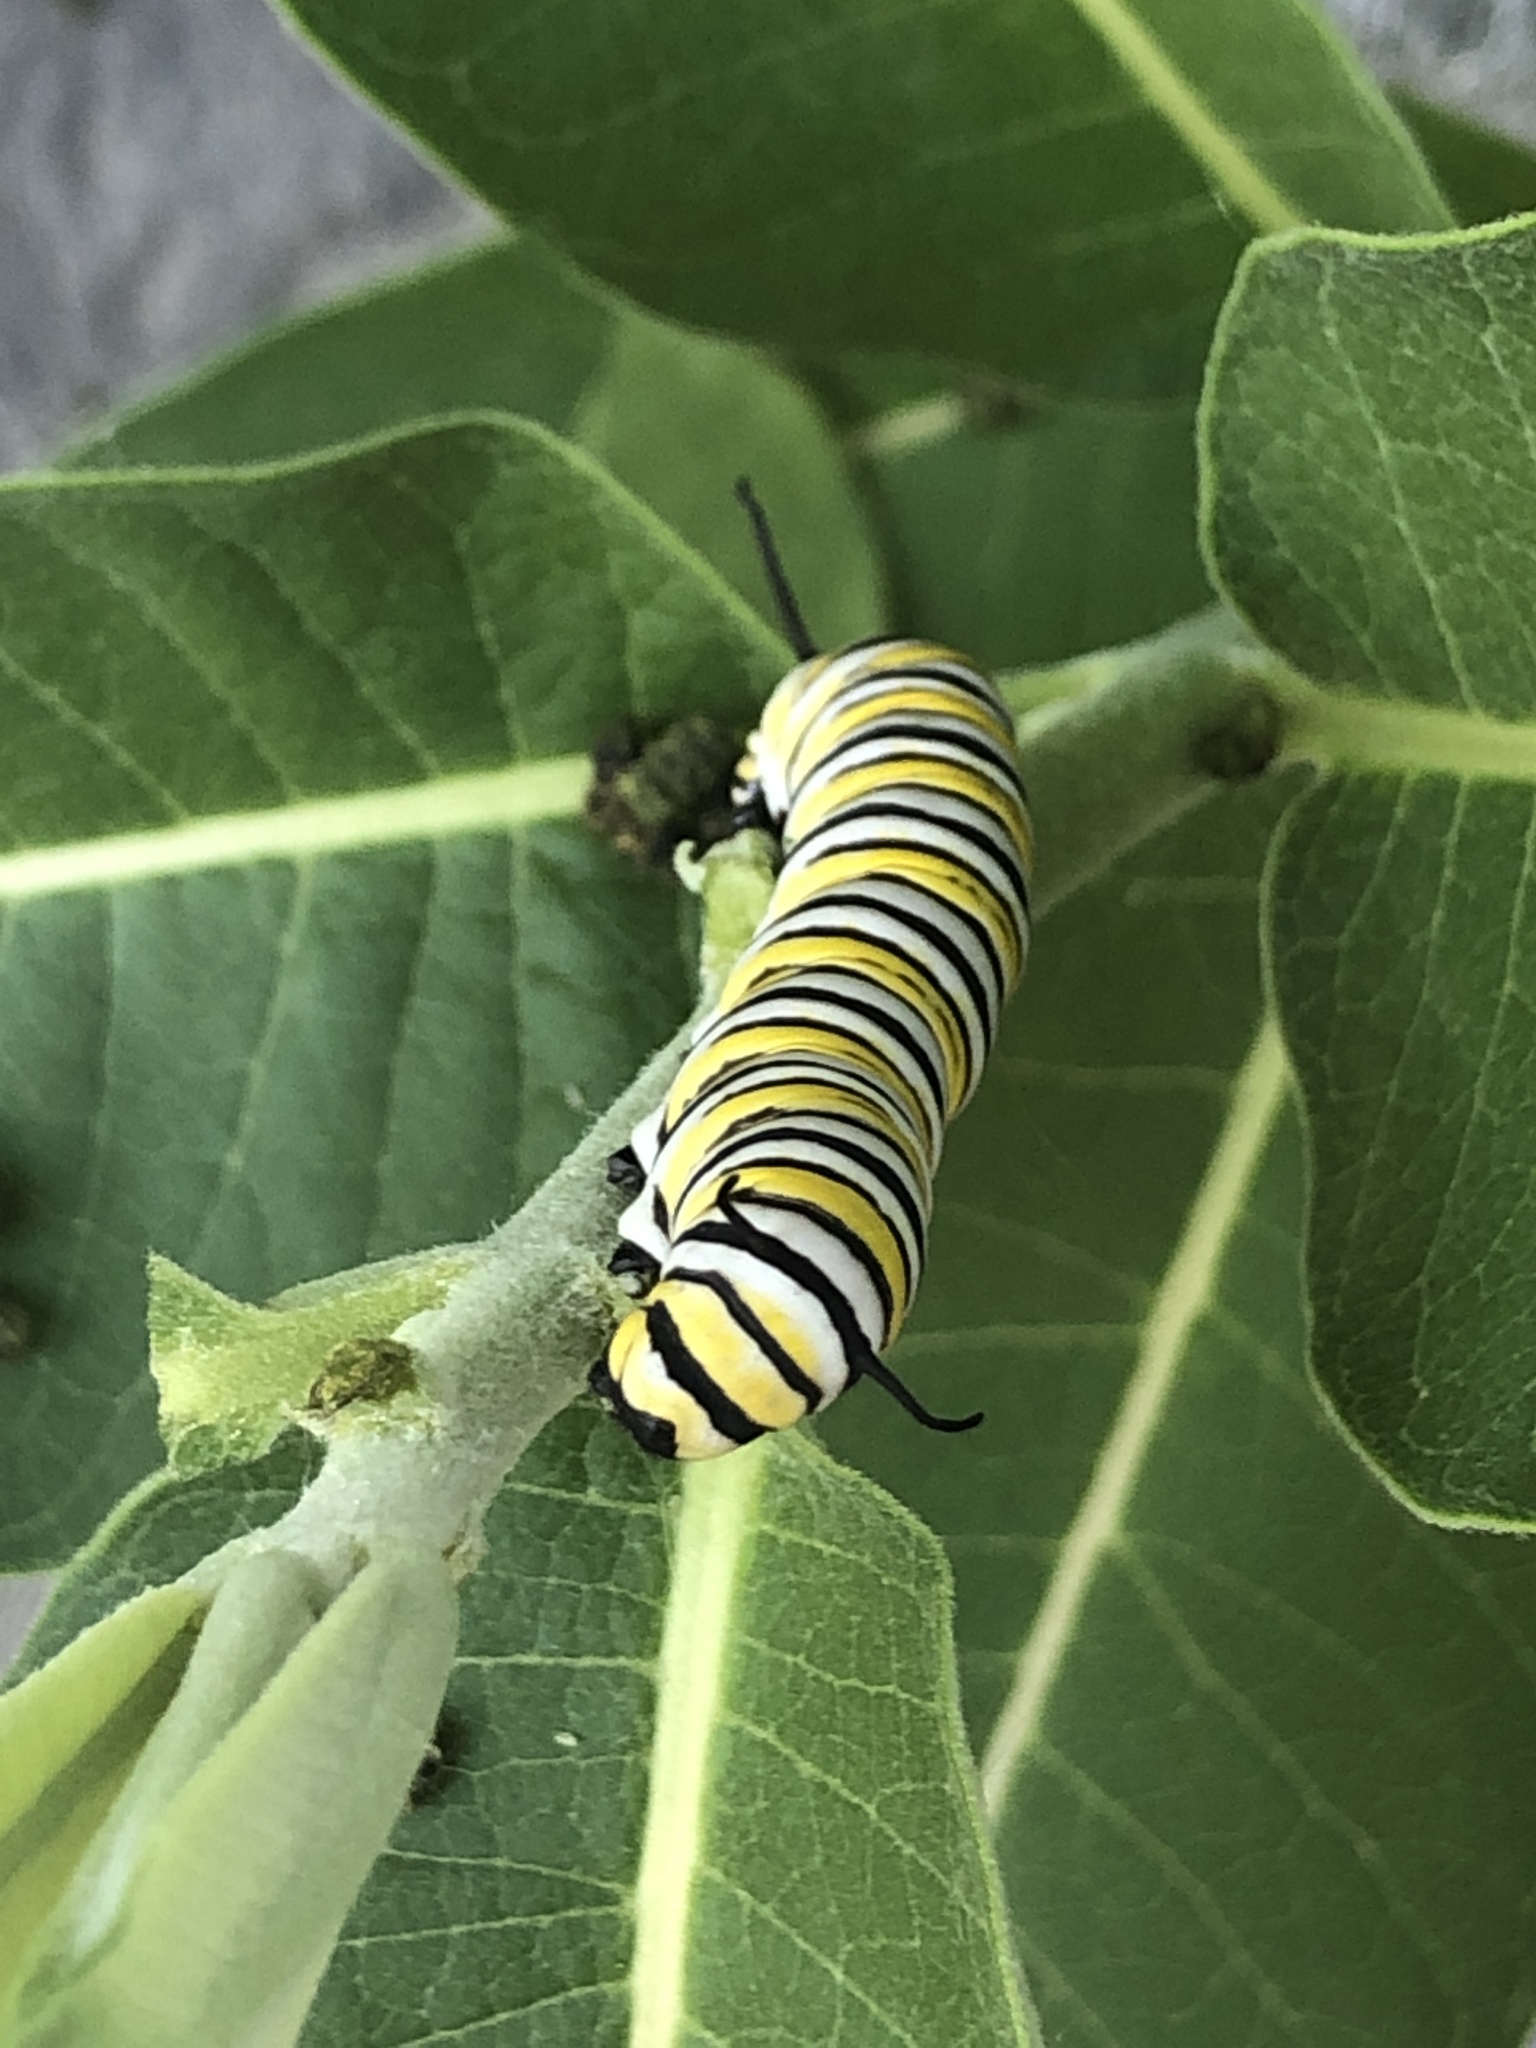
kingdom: Animalia
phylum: Arthropoda
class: Insecta
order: Lepidoptera
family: Nymphalidae
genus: Danaus
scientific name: Danaus plexippus
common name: Monarch
